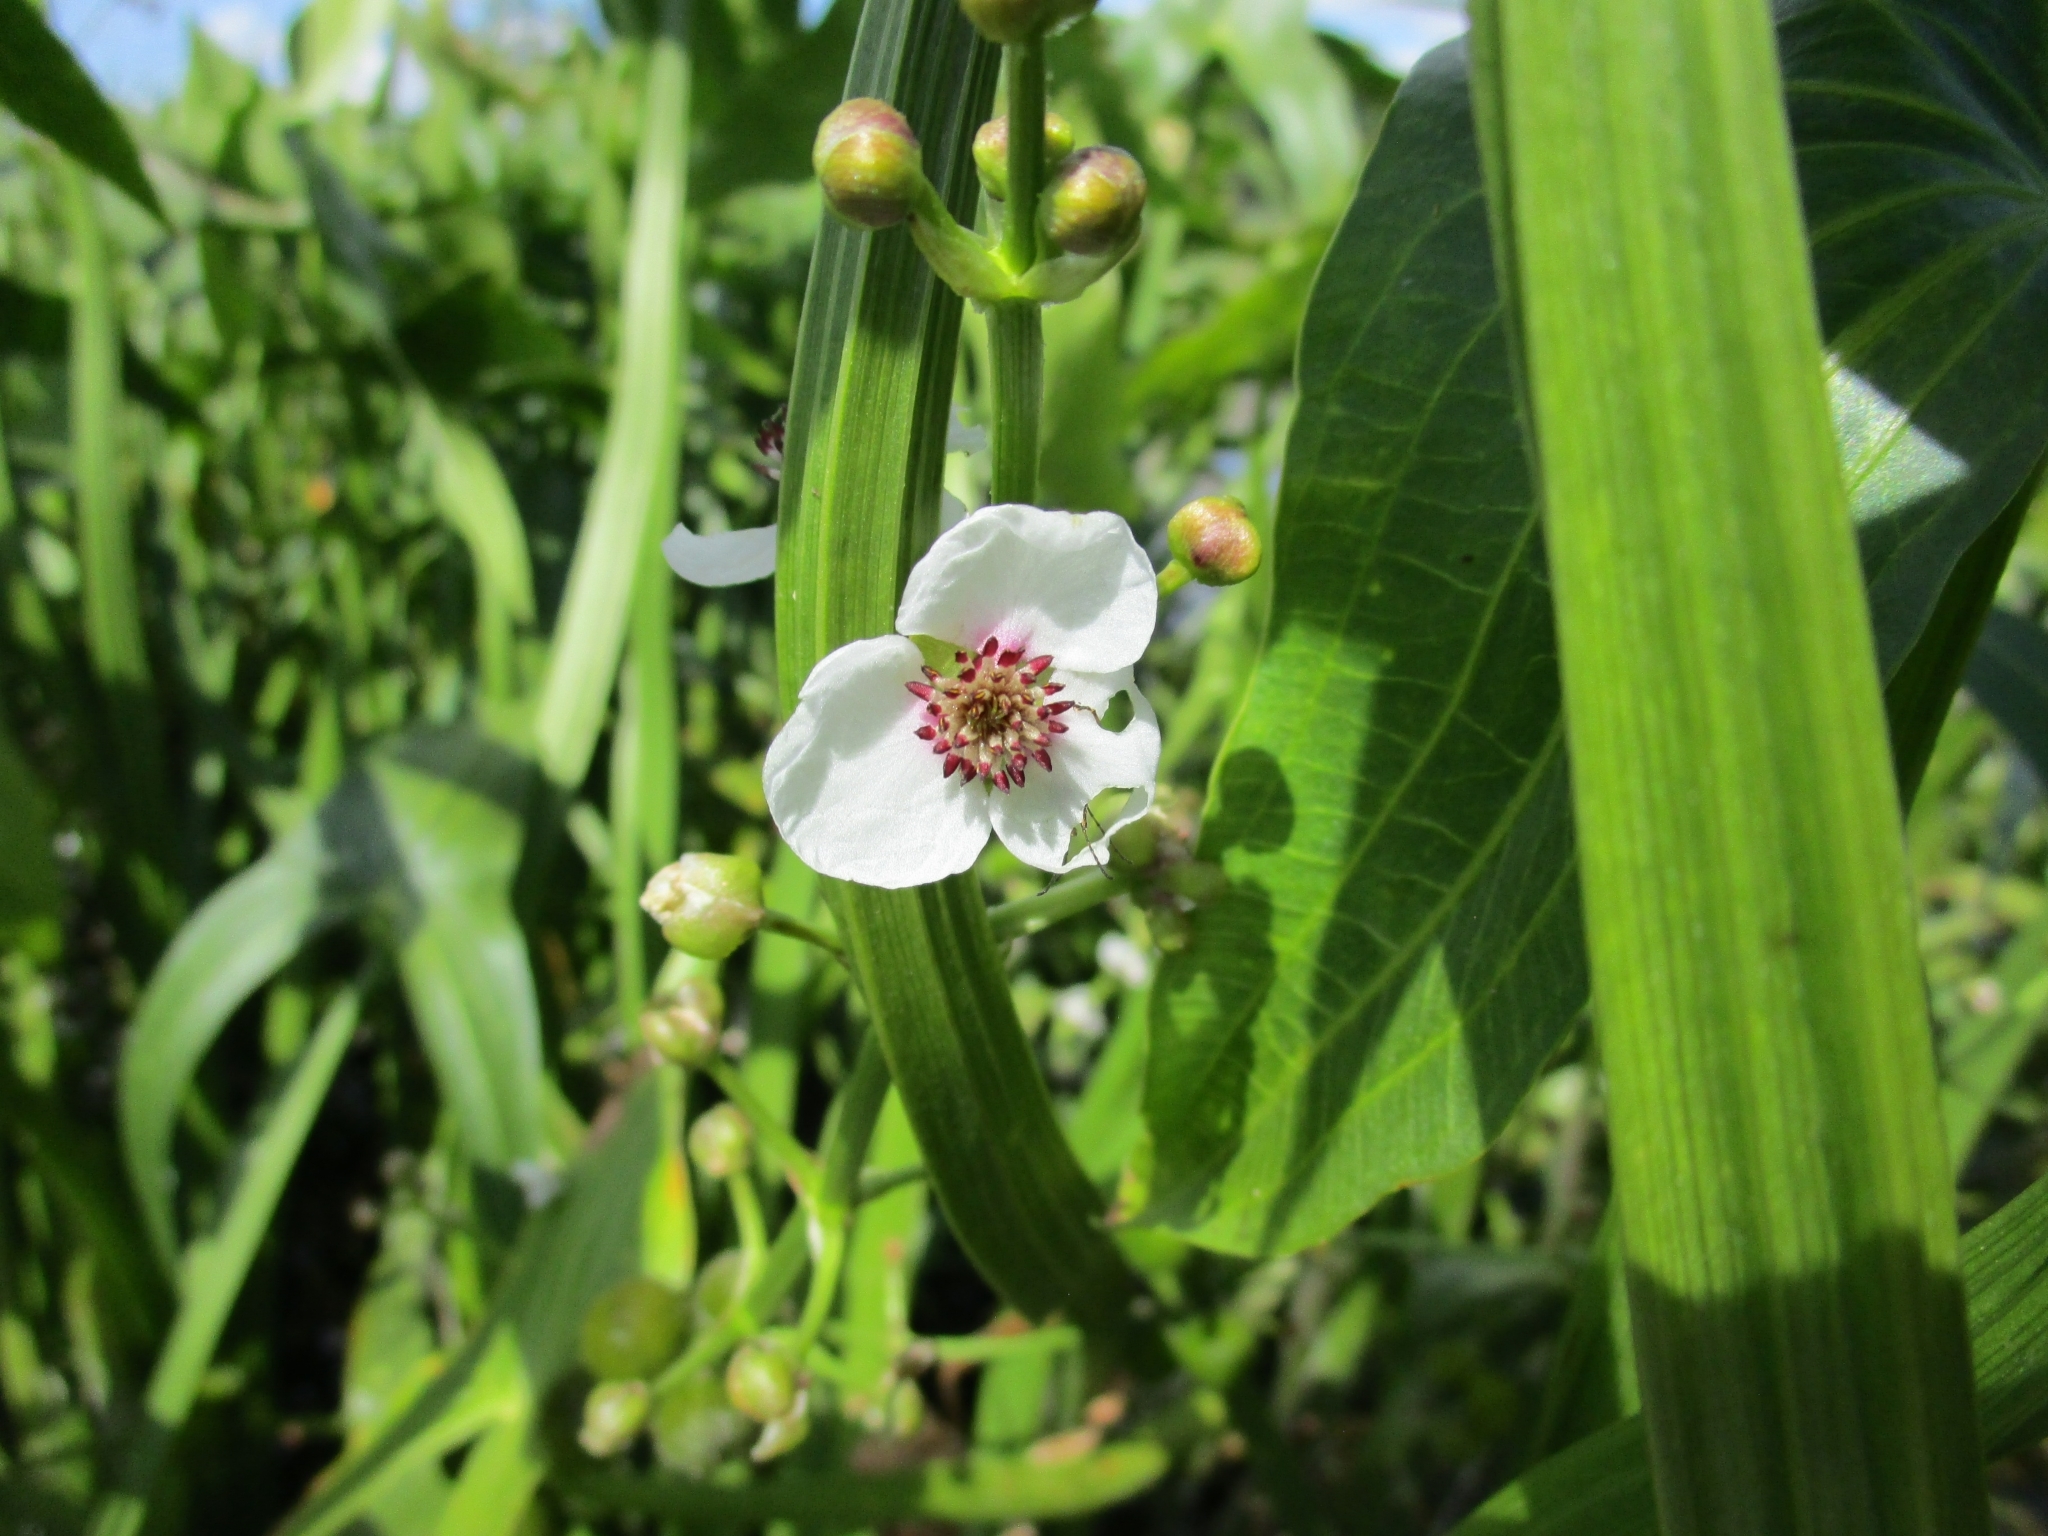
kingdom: Plantae
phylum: Tracheophyta
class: Liliopsida
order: Alismatales
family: Alismataceae
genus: Sagittaria
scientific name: Sagittaria sagittifolia
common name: Arrowhead
